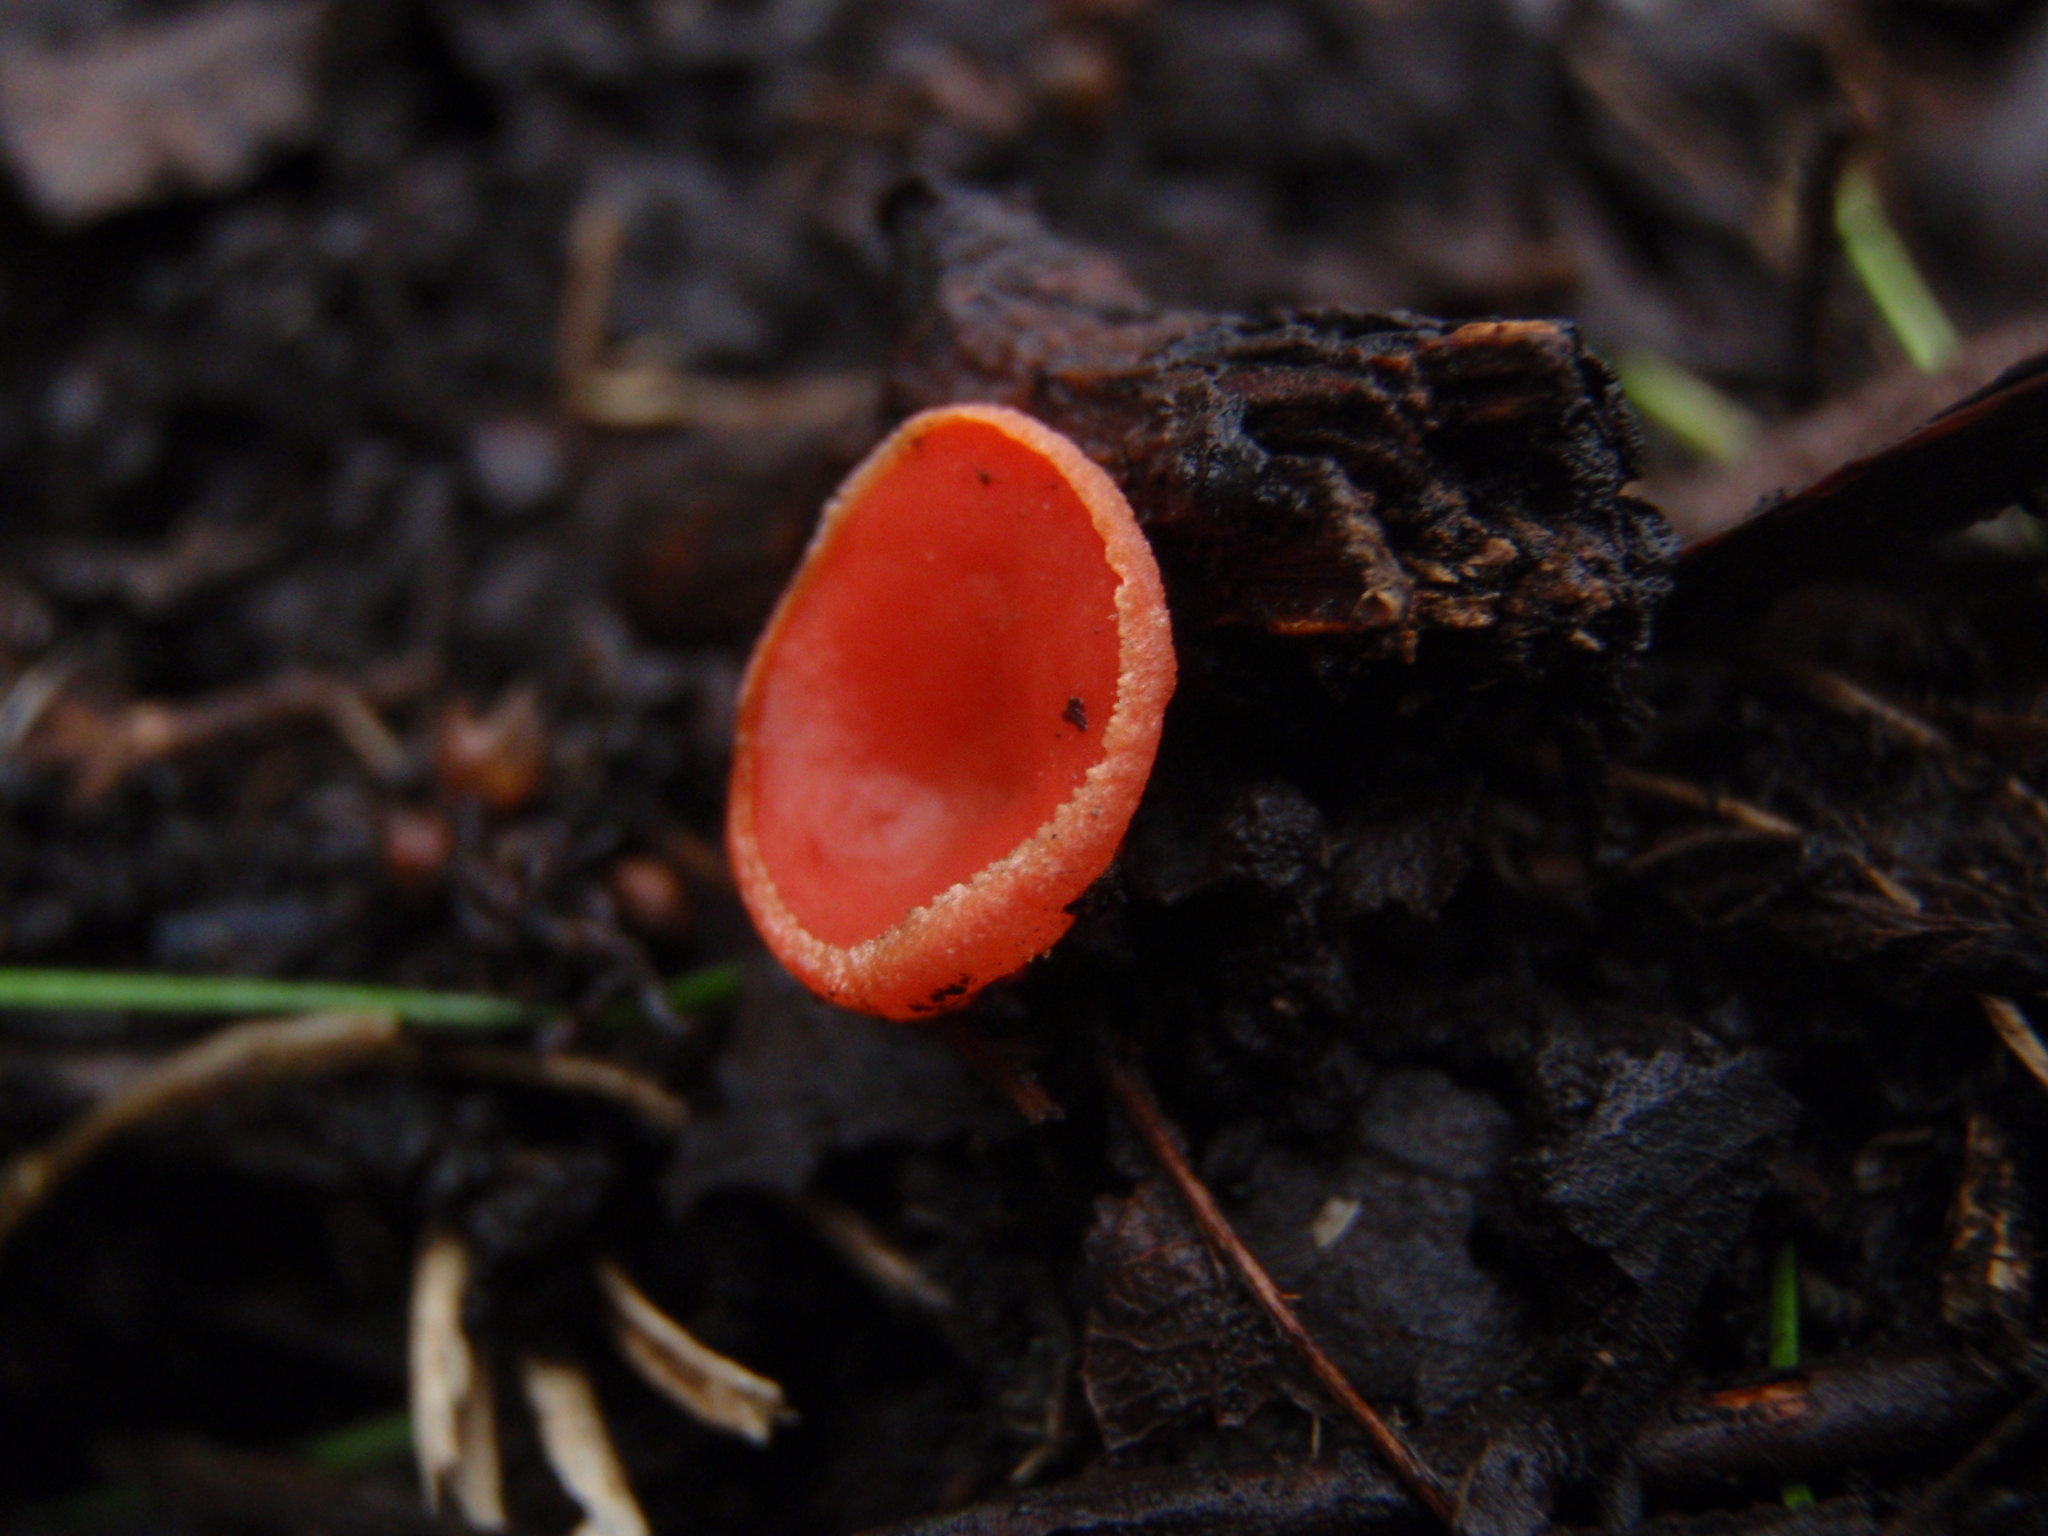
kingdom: Fungi
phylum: Ascomycota
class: Pezizomycetes
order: Pezizales
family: Sarcoscyphaceae
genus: Sarcoscypha
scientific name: Sarcoscypha
